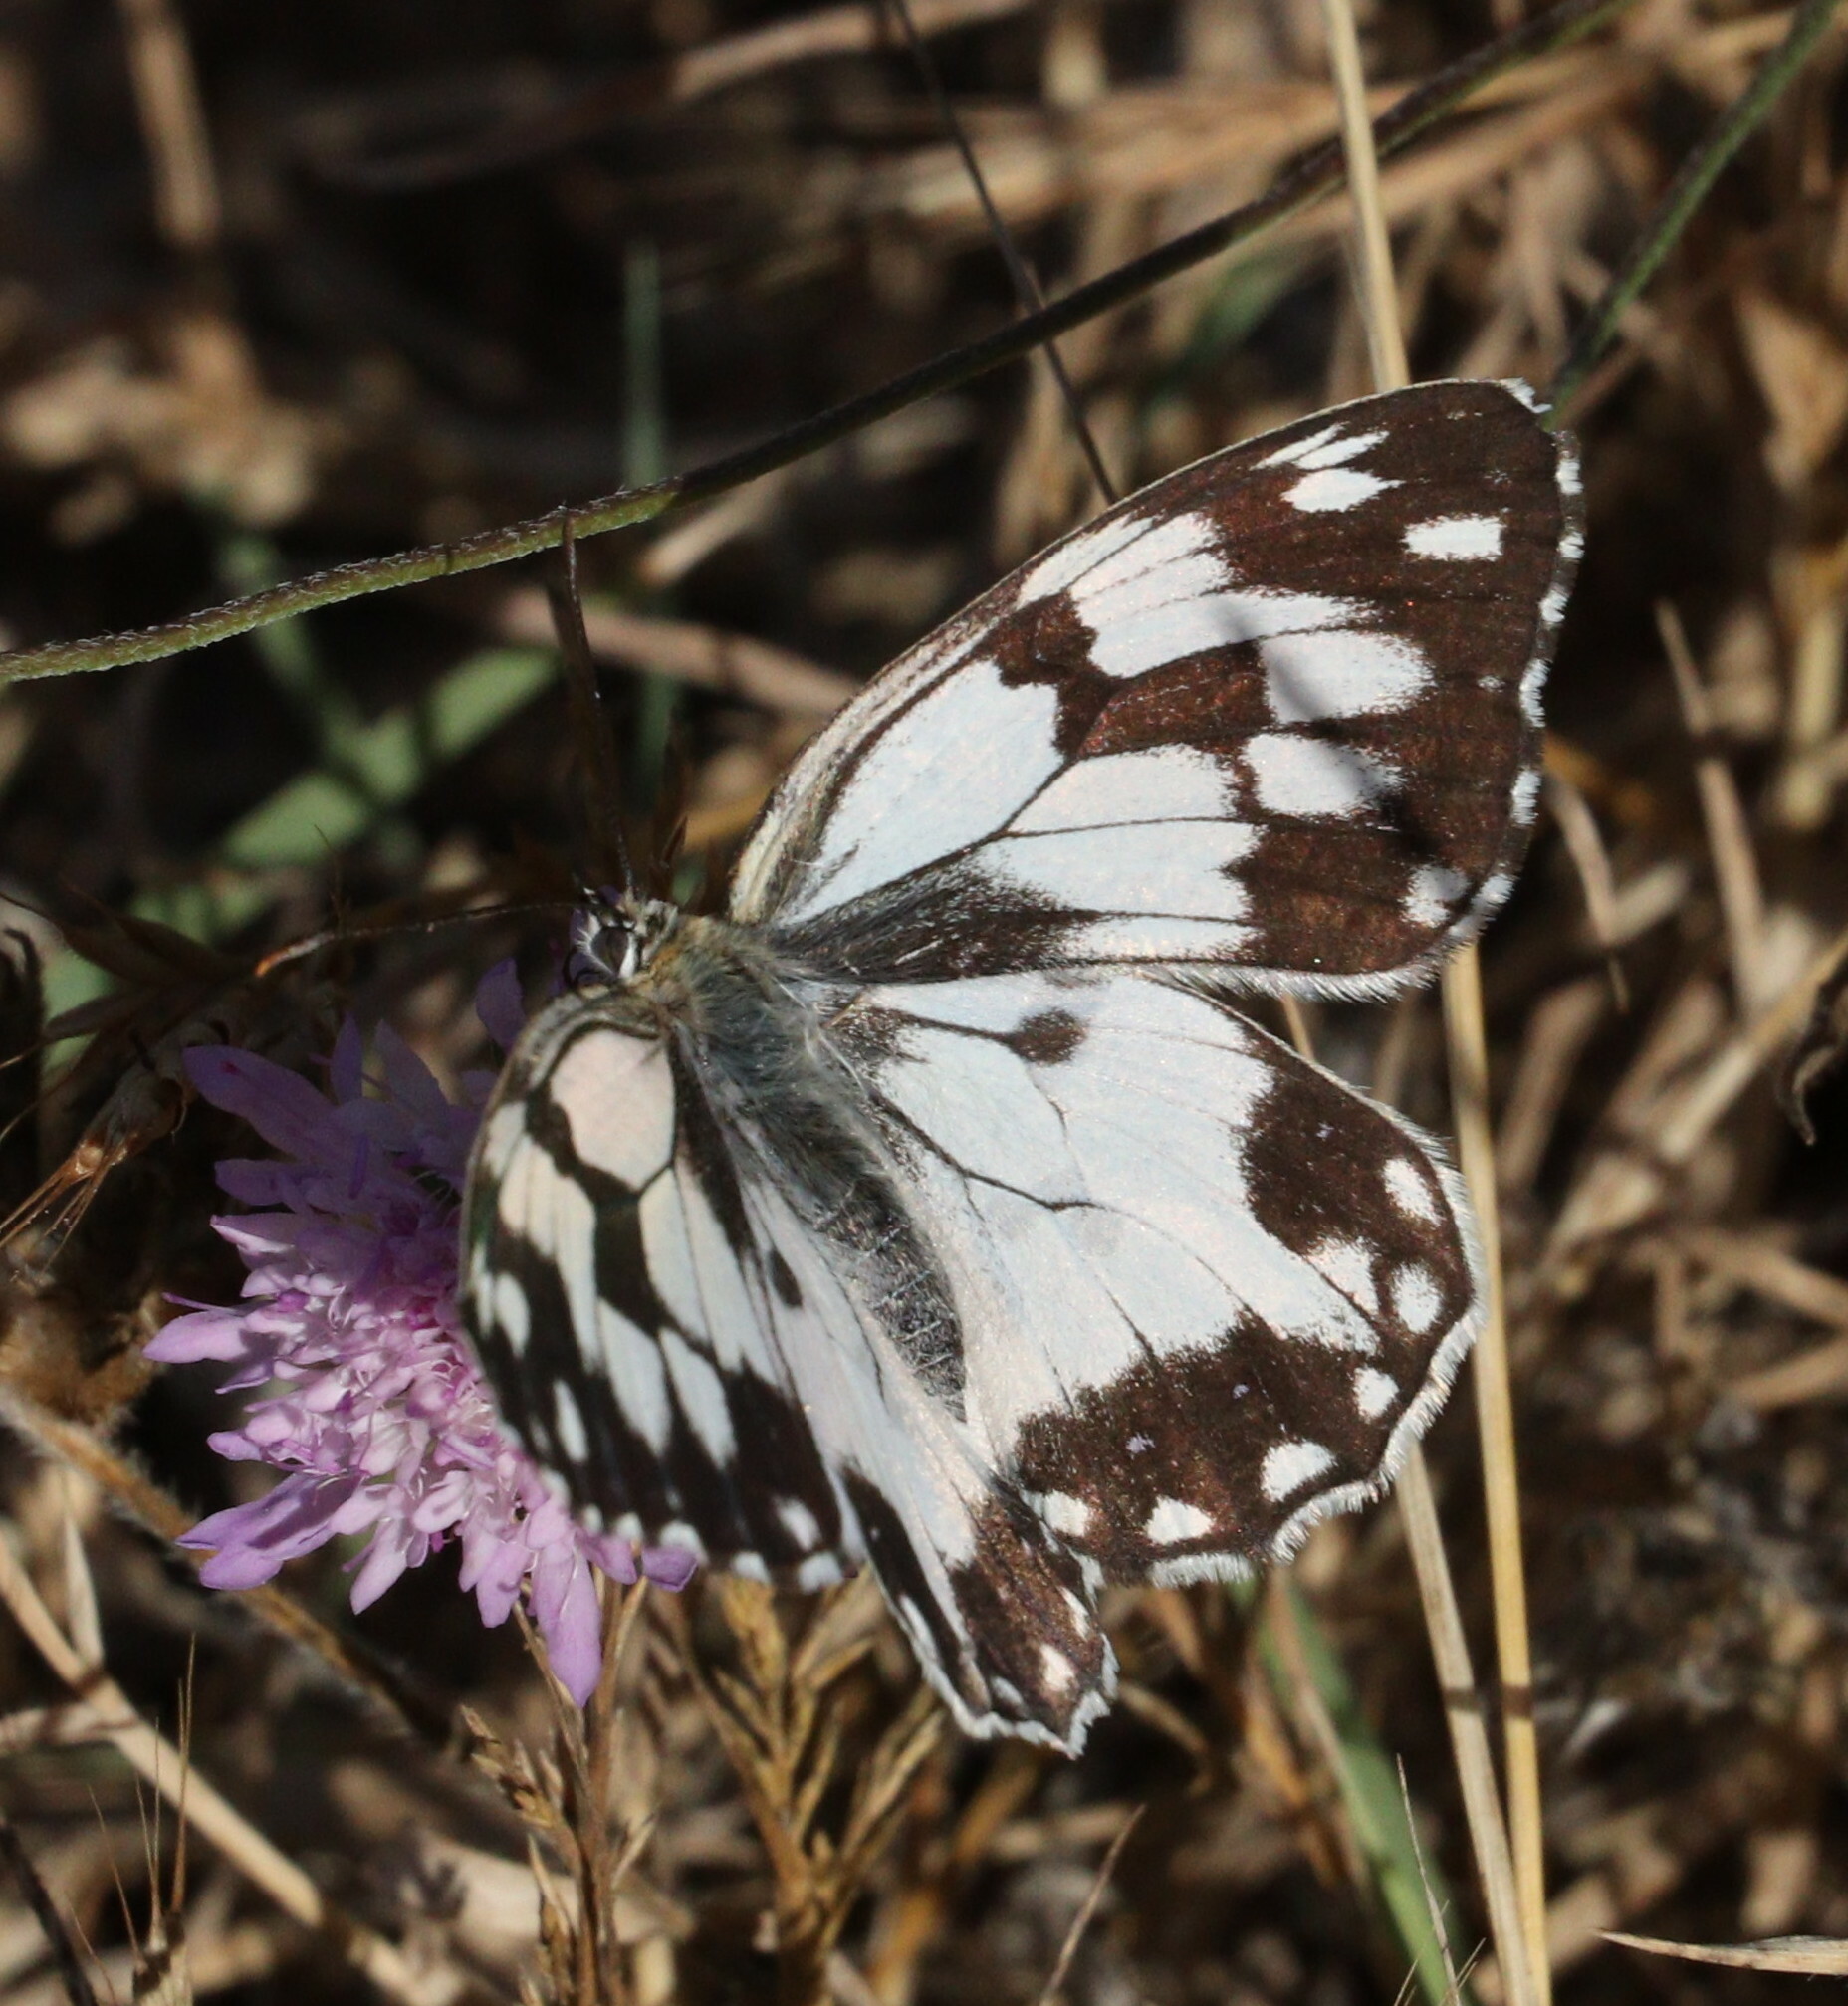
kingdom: Animalia
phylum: Arthropoda
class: Insecta
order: Lepidoptera
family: Nymphalidae
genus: Melanargia
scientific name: Melanargia lachesis
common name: Iberian marbled white
